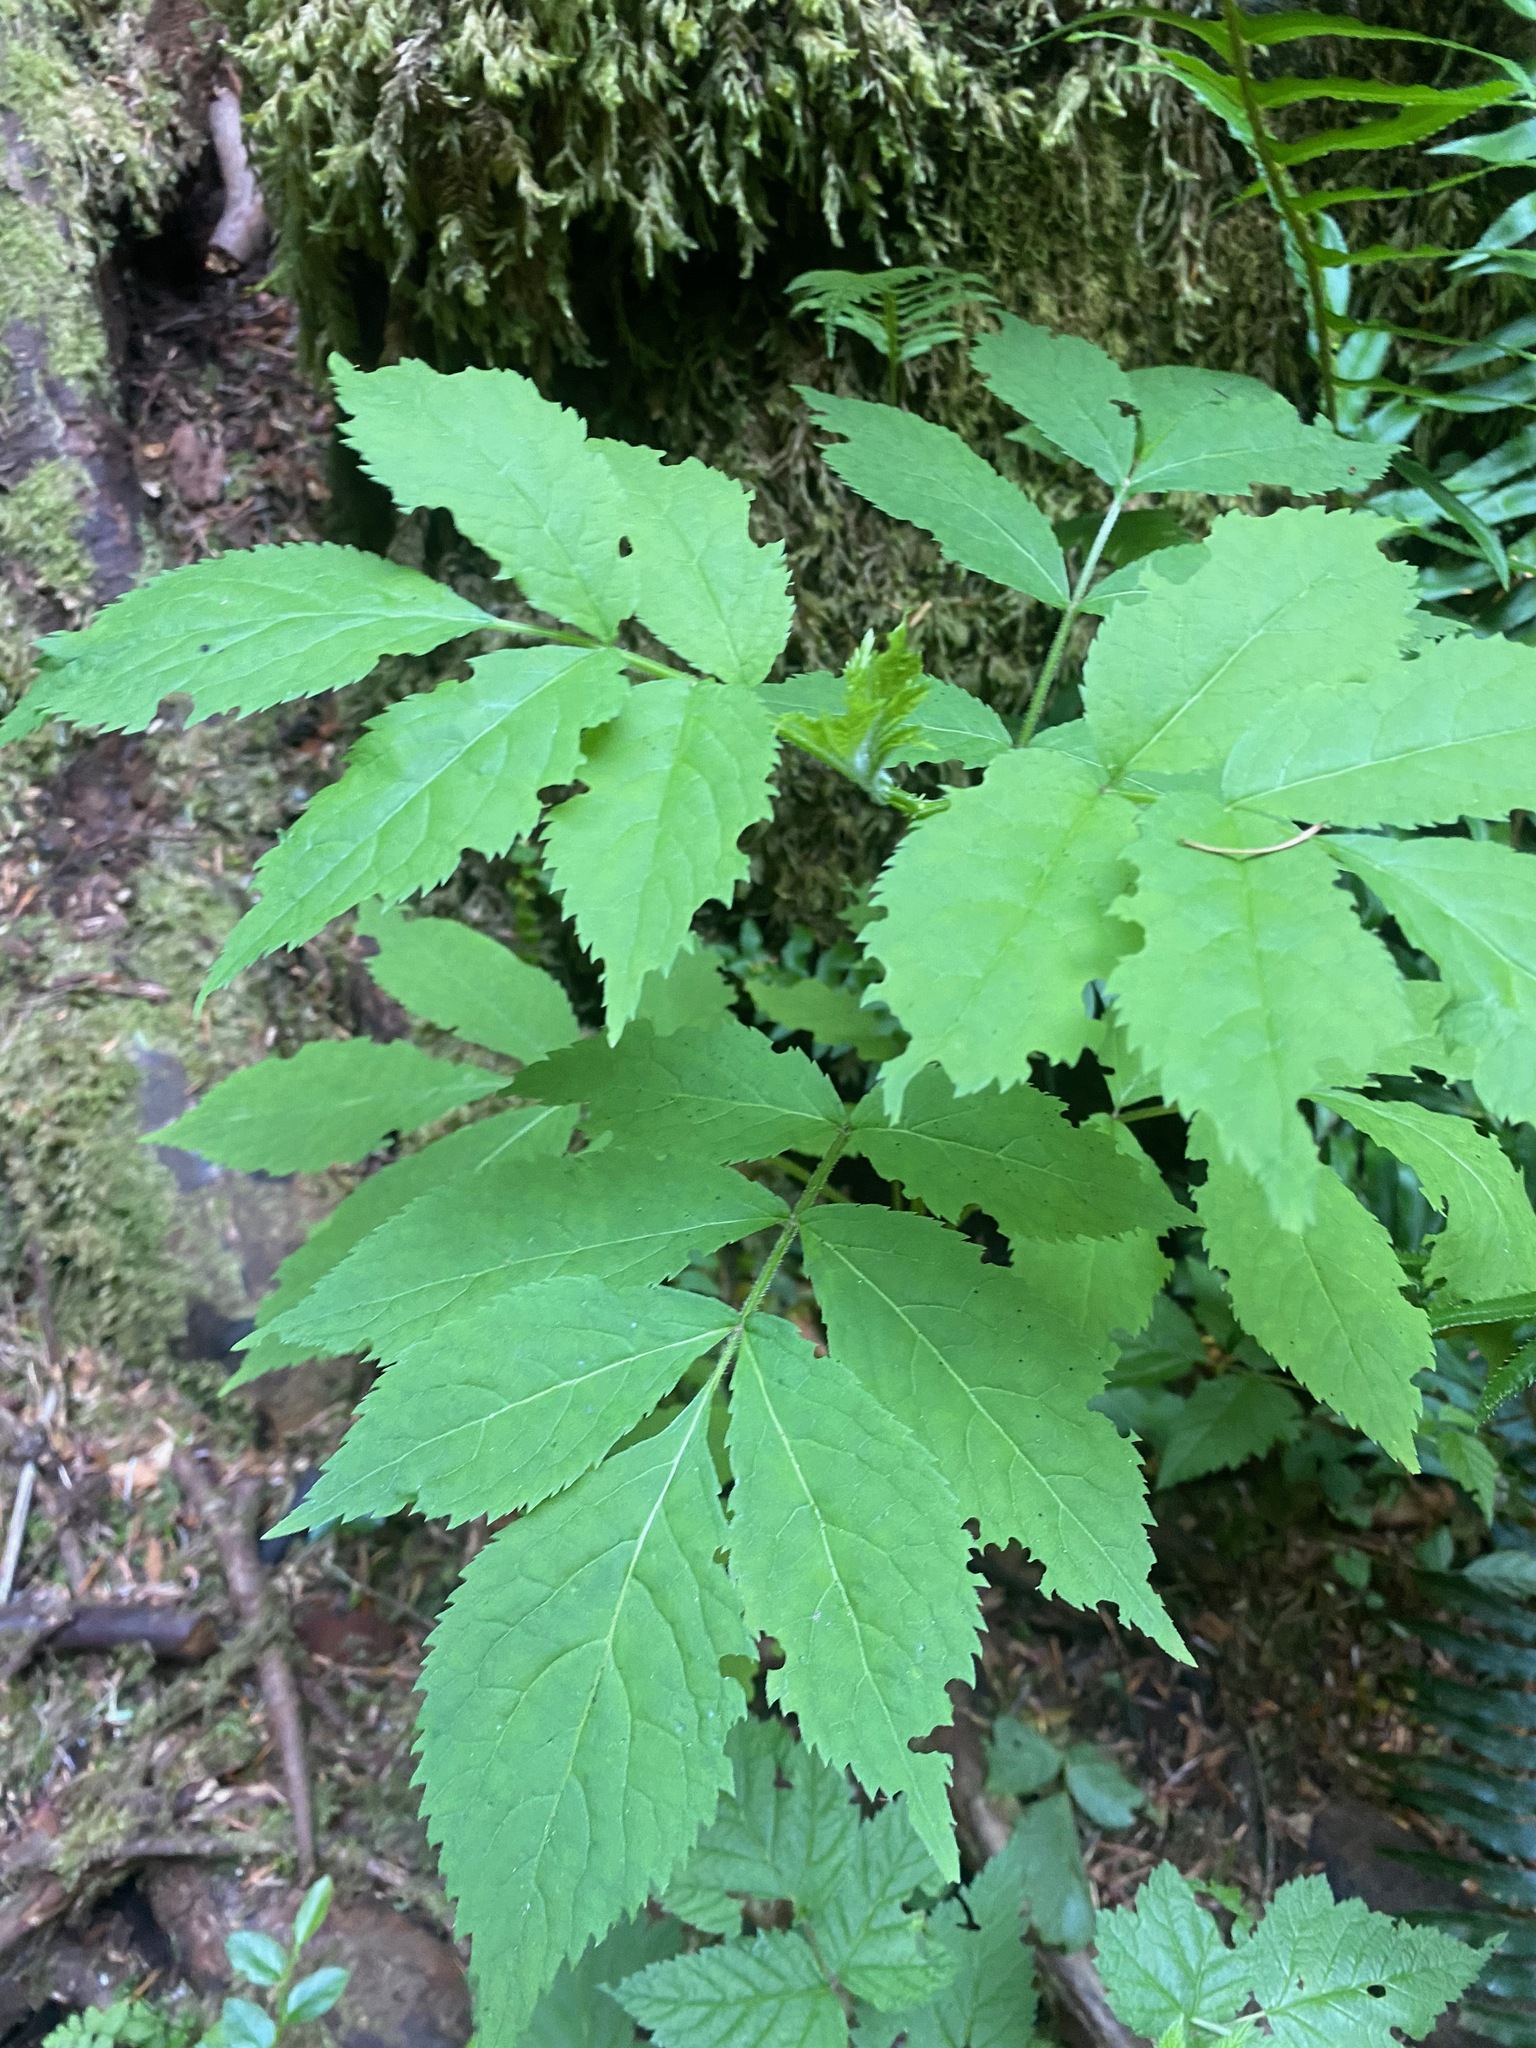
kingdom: Plantae
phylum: Tracheophyta
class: Magnoliopsida
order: Dipsacales
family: Viburnaceae
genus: Sambucus
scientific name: Sambucus racemosa
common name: Red-berried elder
